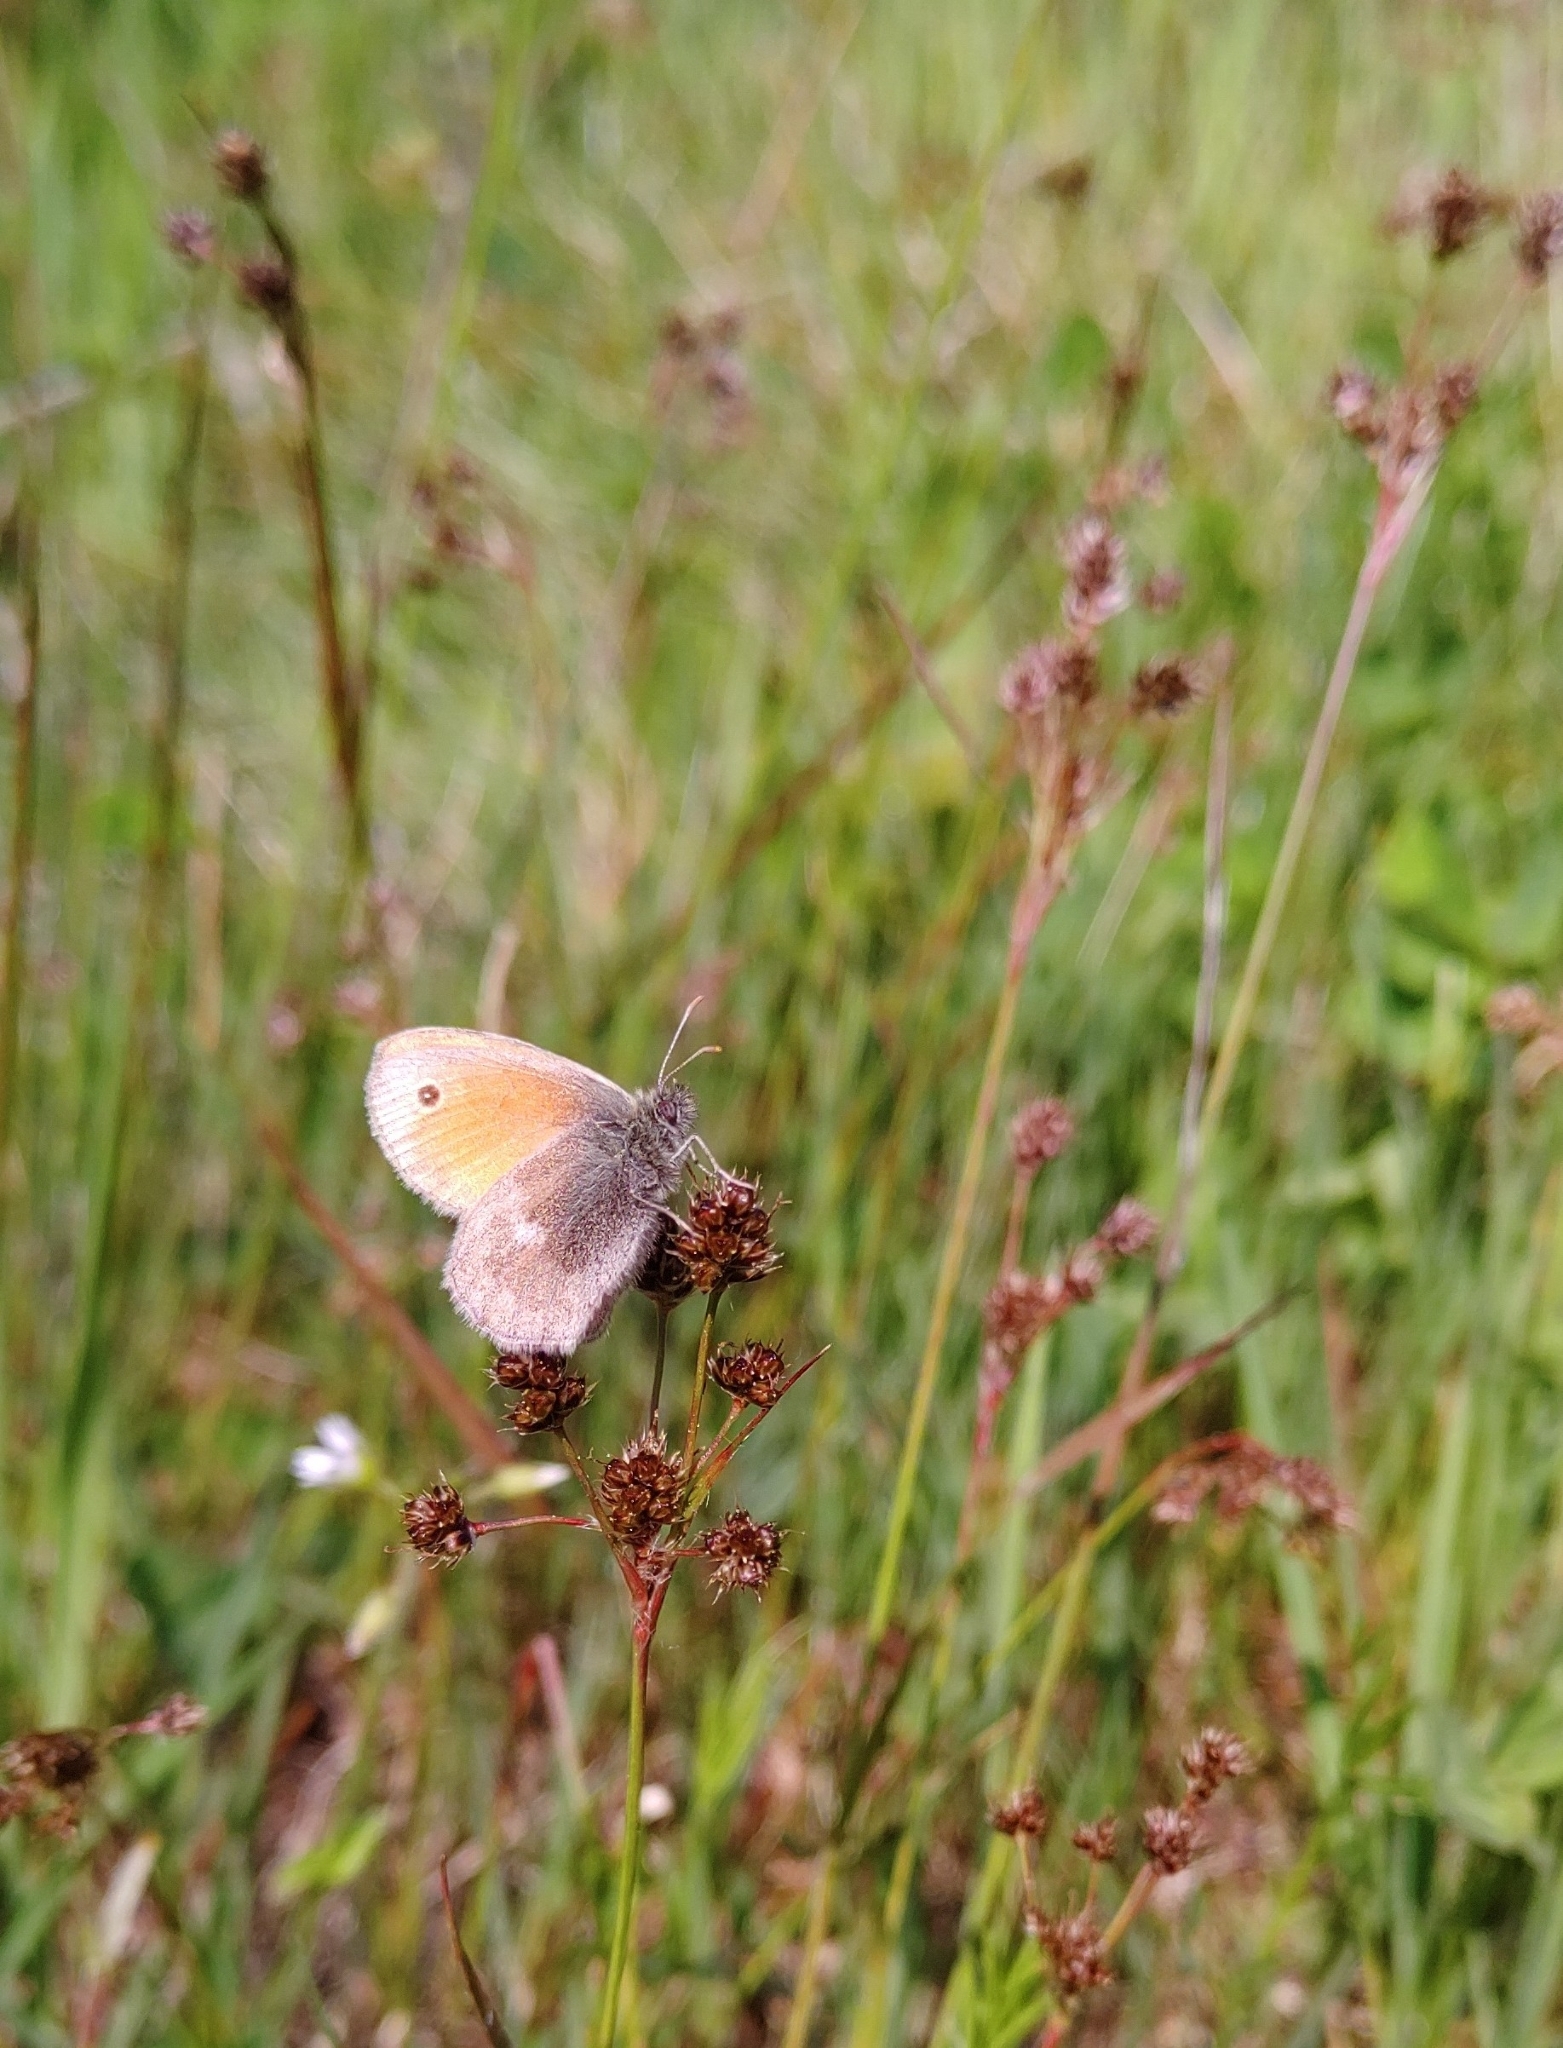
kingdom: Animalia
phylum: Arthropoda
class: Insecta
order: Lepidoptera
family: Nymphalidae
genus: Coenonympha
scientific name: Coenonympha pamphilus
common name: Small heath
